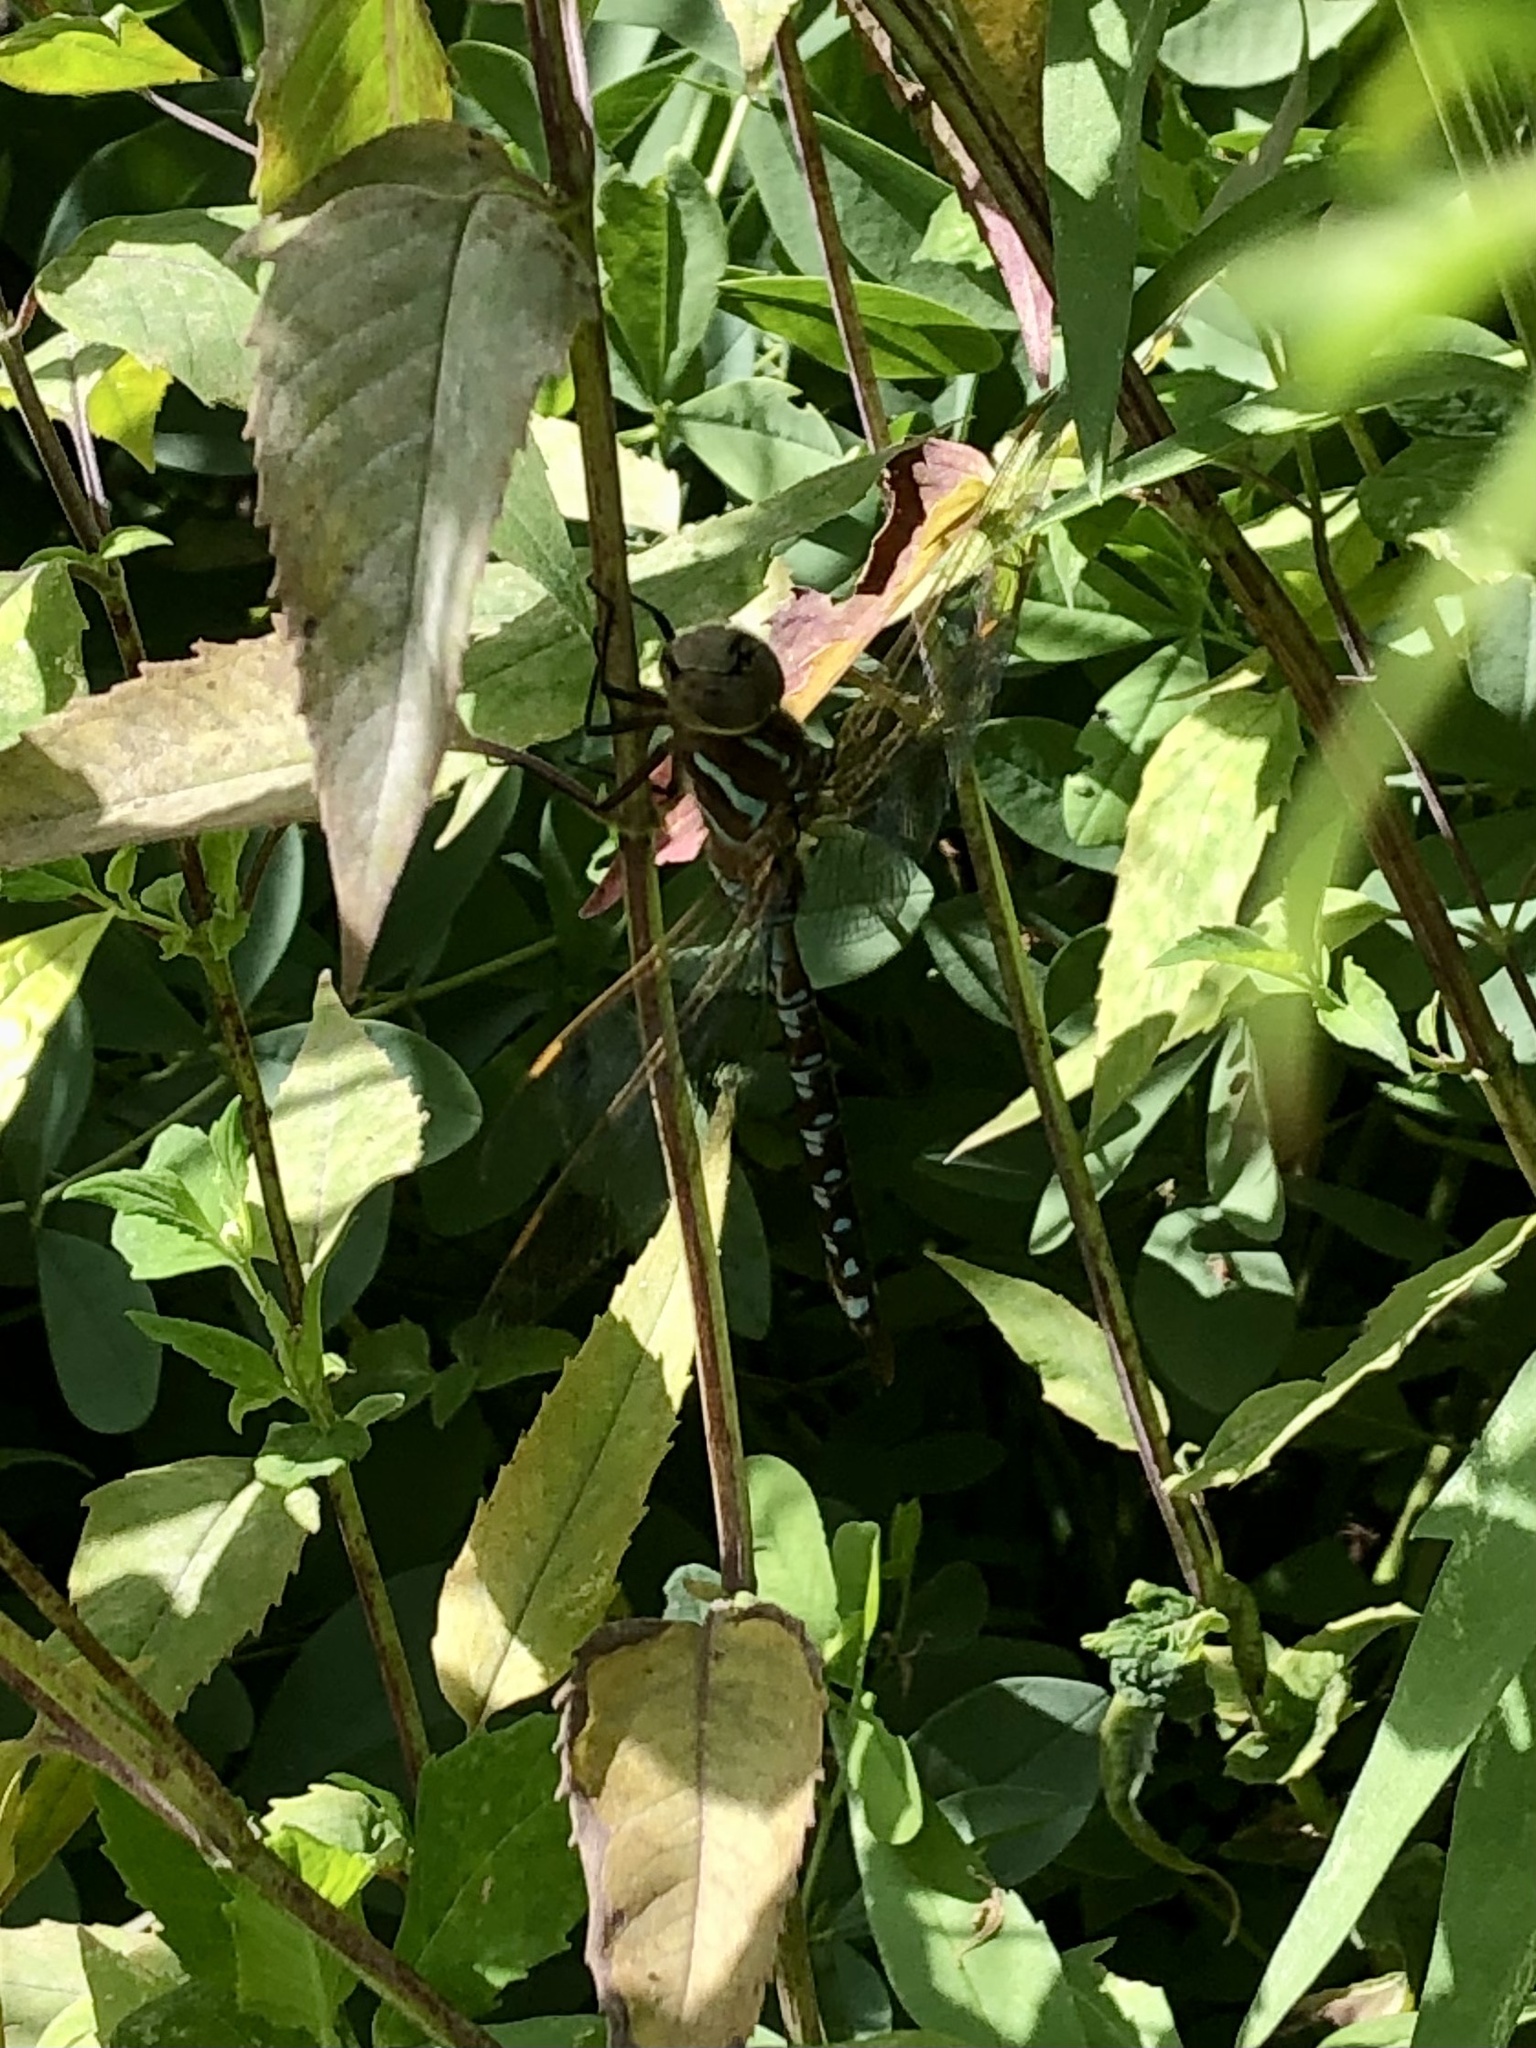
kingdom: Animalia
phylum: Arthropoda
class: Insecta
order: Odonata
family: Aeshnidae
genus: Aeshna
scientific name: Aeshna constricta
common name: Lance-tipped darner
